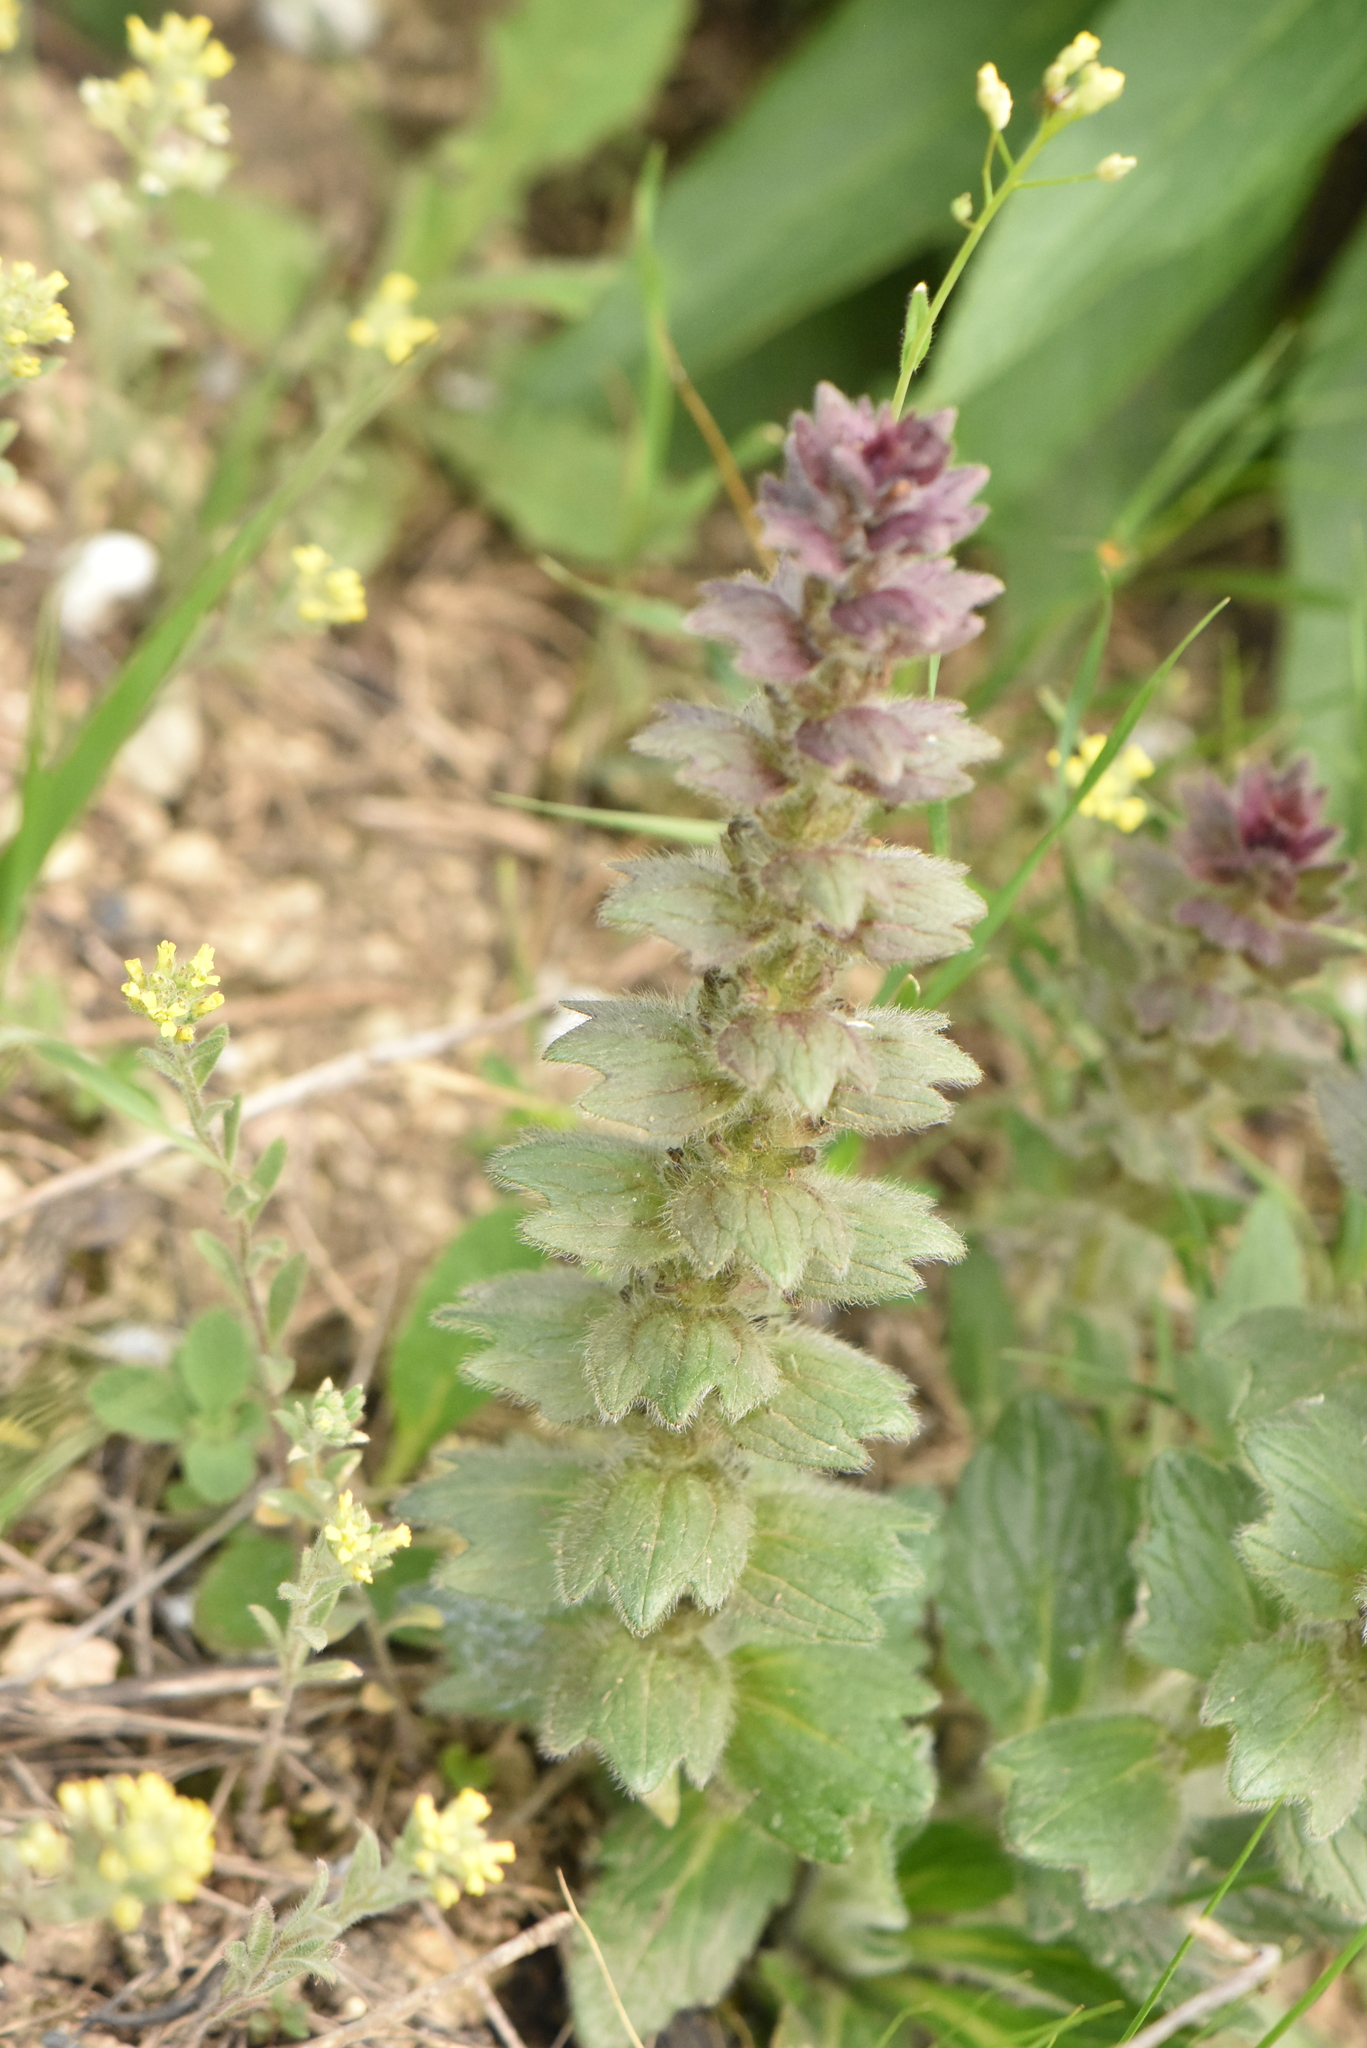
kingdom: Plantae
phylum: Tracheophyta
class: Magnoliopsida
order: Lamiales
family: Lamiaceae
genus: Ajuga
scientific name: Ajuga orientalis
